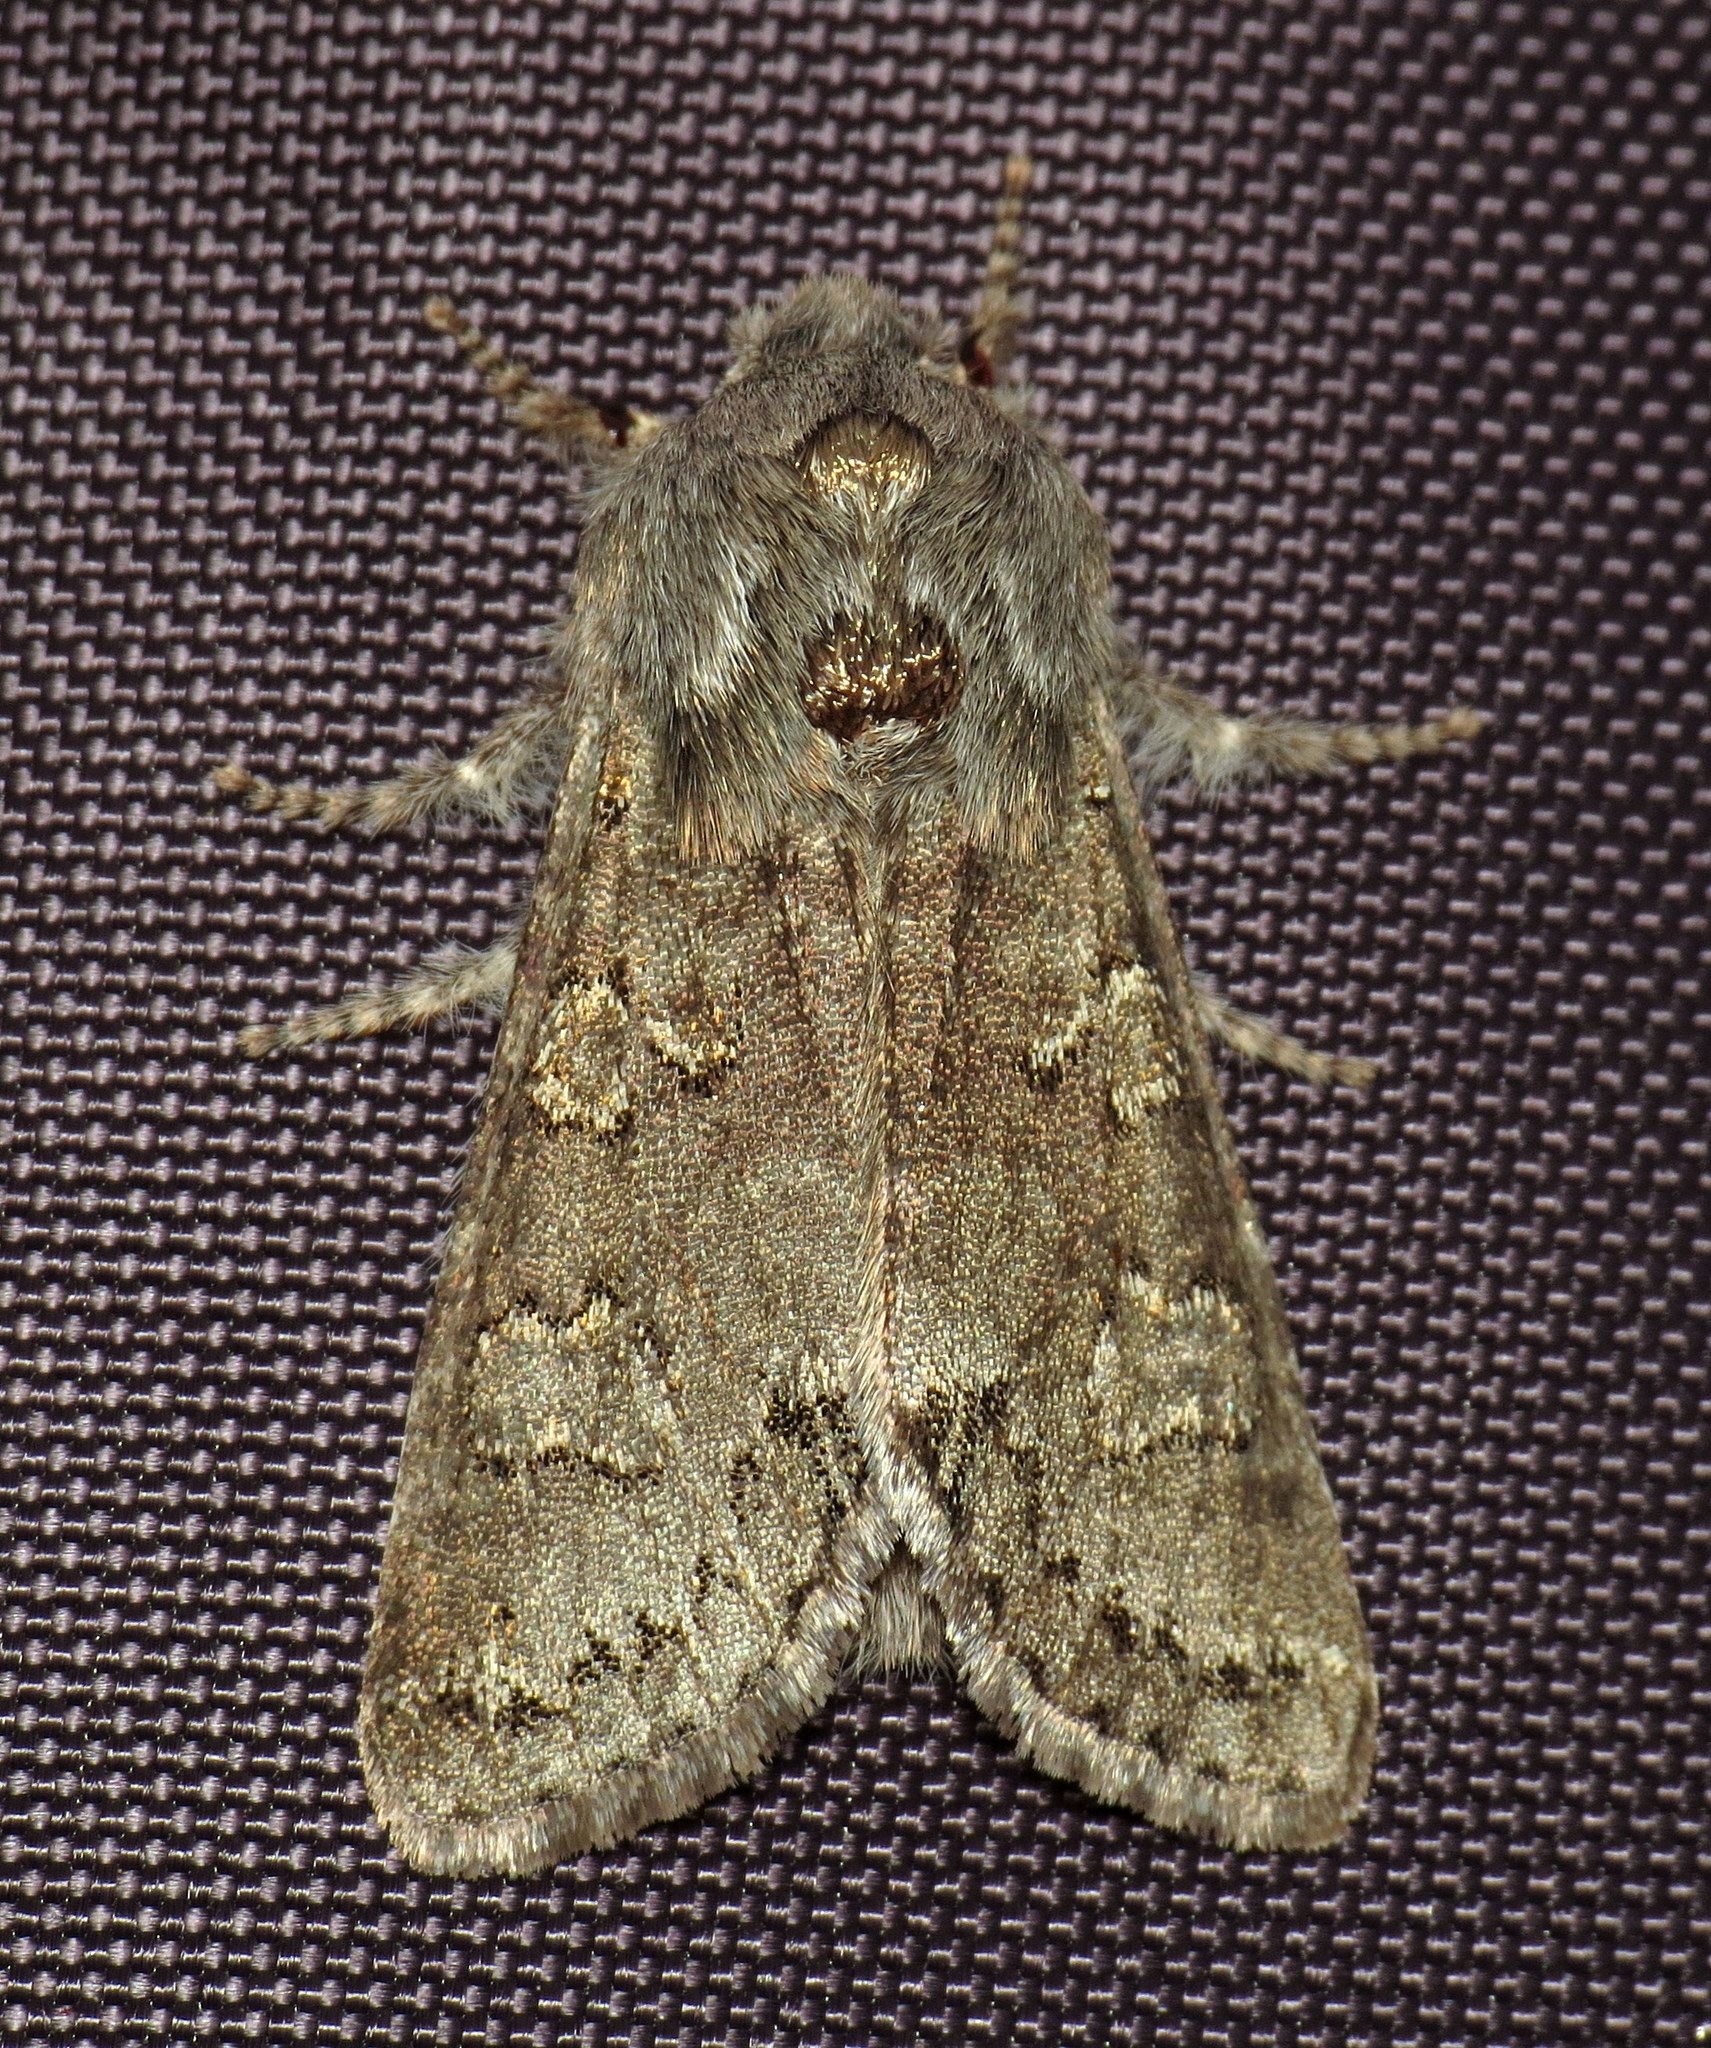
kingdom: Animalia
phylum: Arthropoda
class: Insecta
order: Lepidoptera
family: Noctuidae
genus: Psaphida
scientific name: Psaphida rolandi
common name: Roland's sallow
